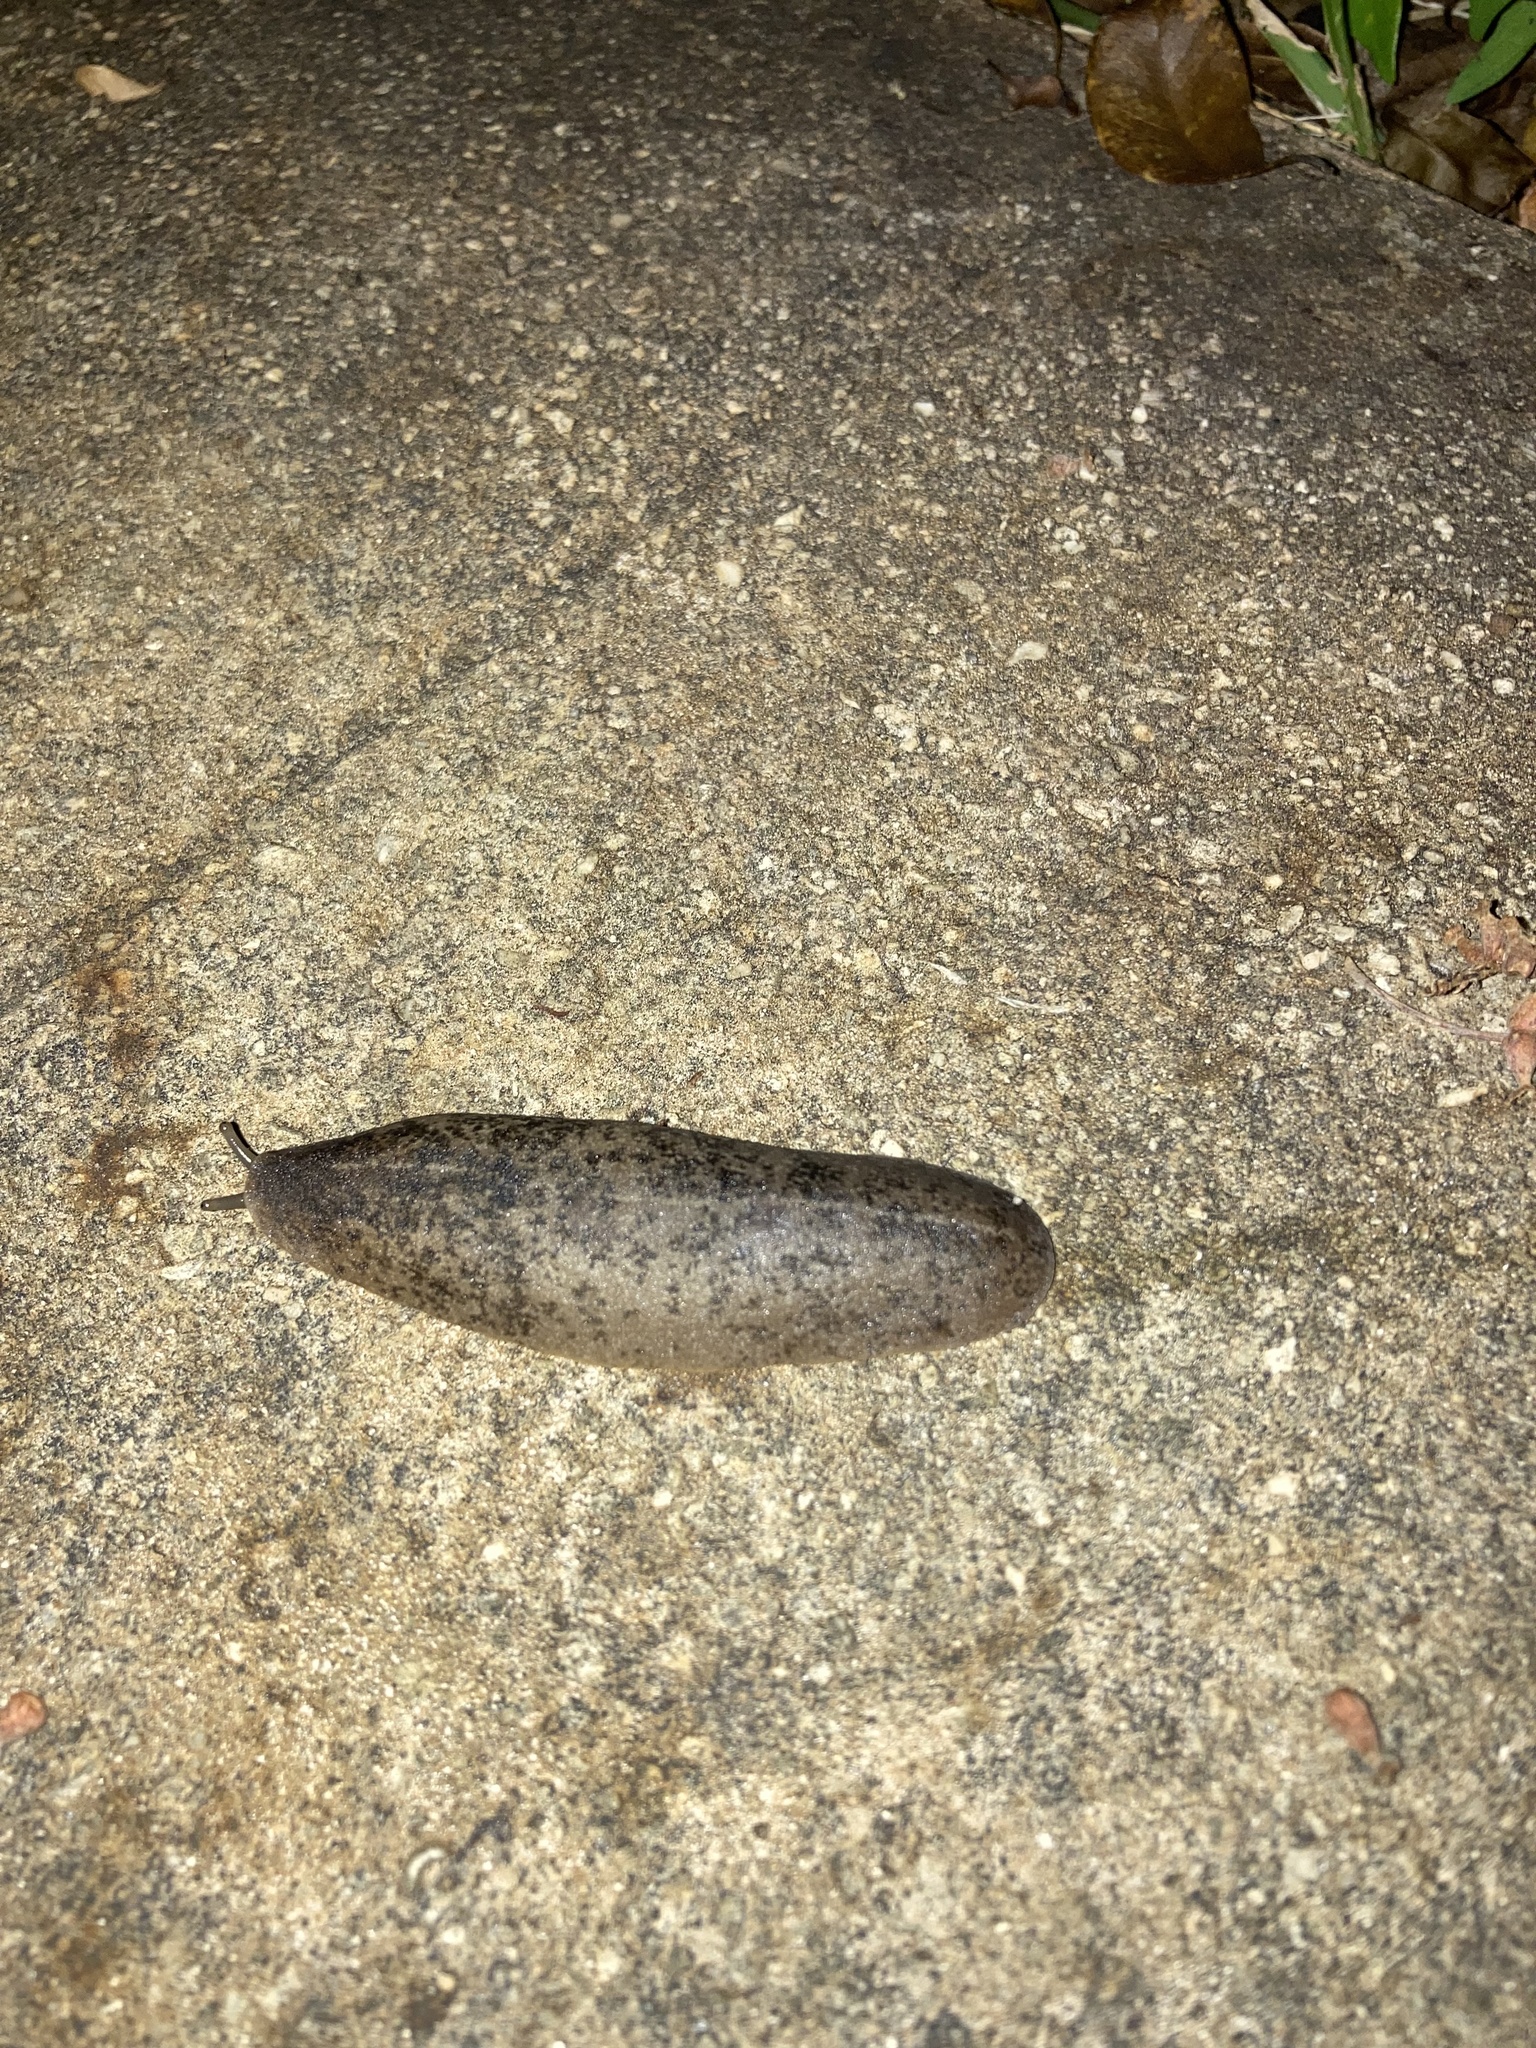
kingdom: Animalia
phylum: Mollusca
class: Gastropoda
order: Systellommatophora
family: Veronicellidae
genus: Leidyula
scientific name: Leidyula floridana
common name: Florida leatherleaf
